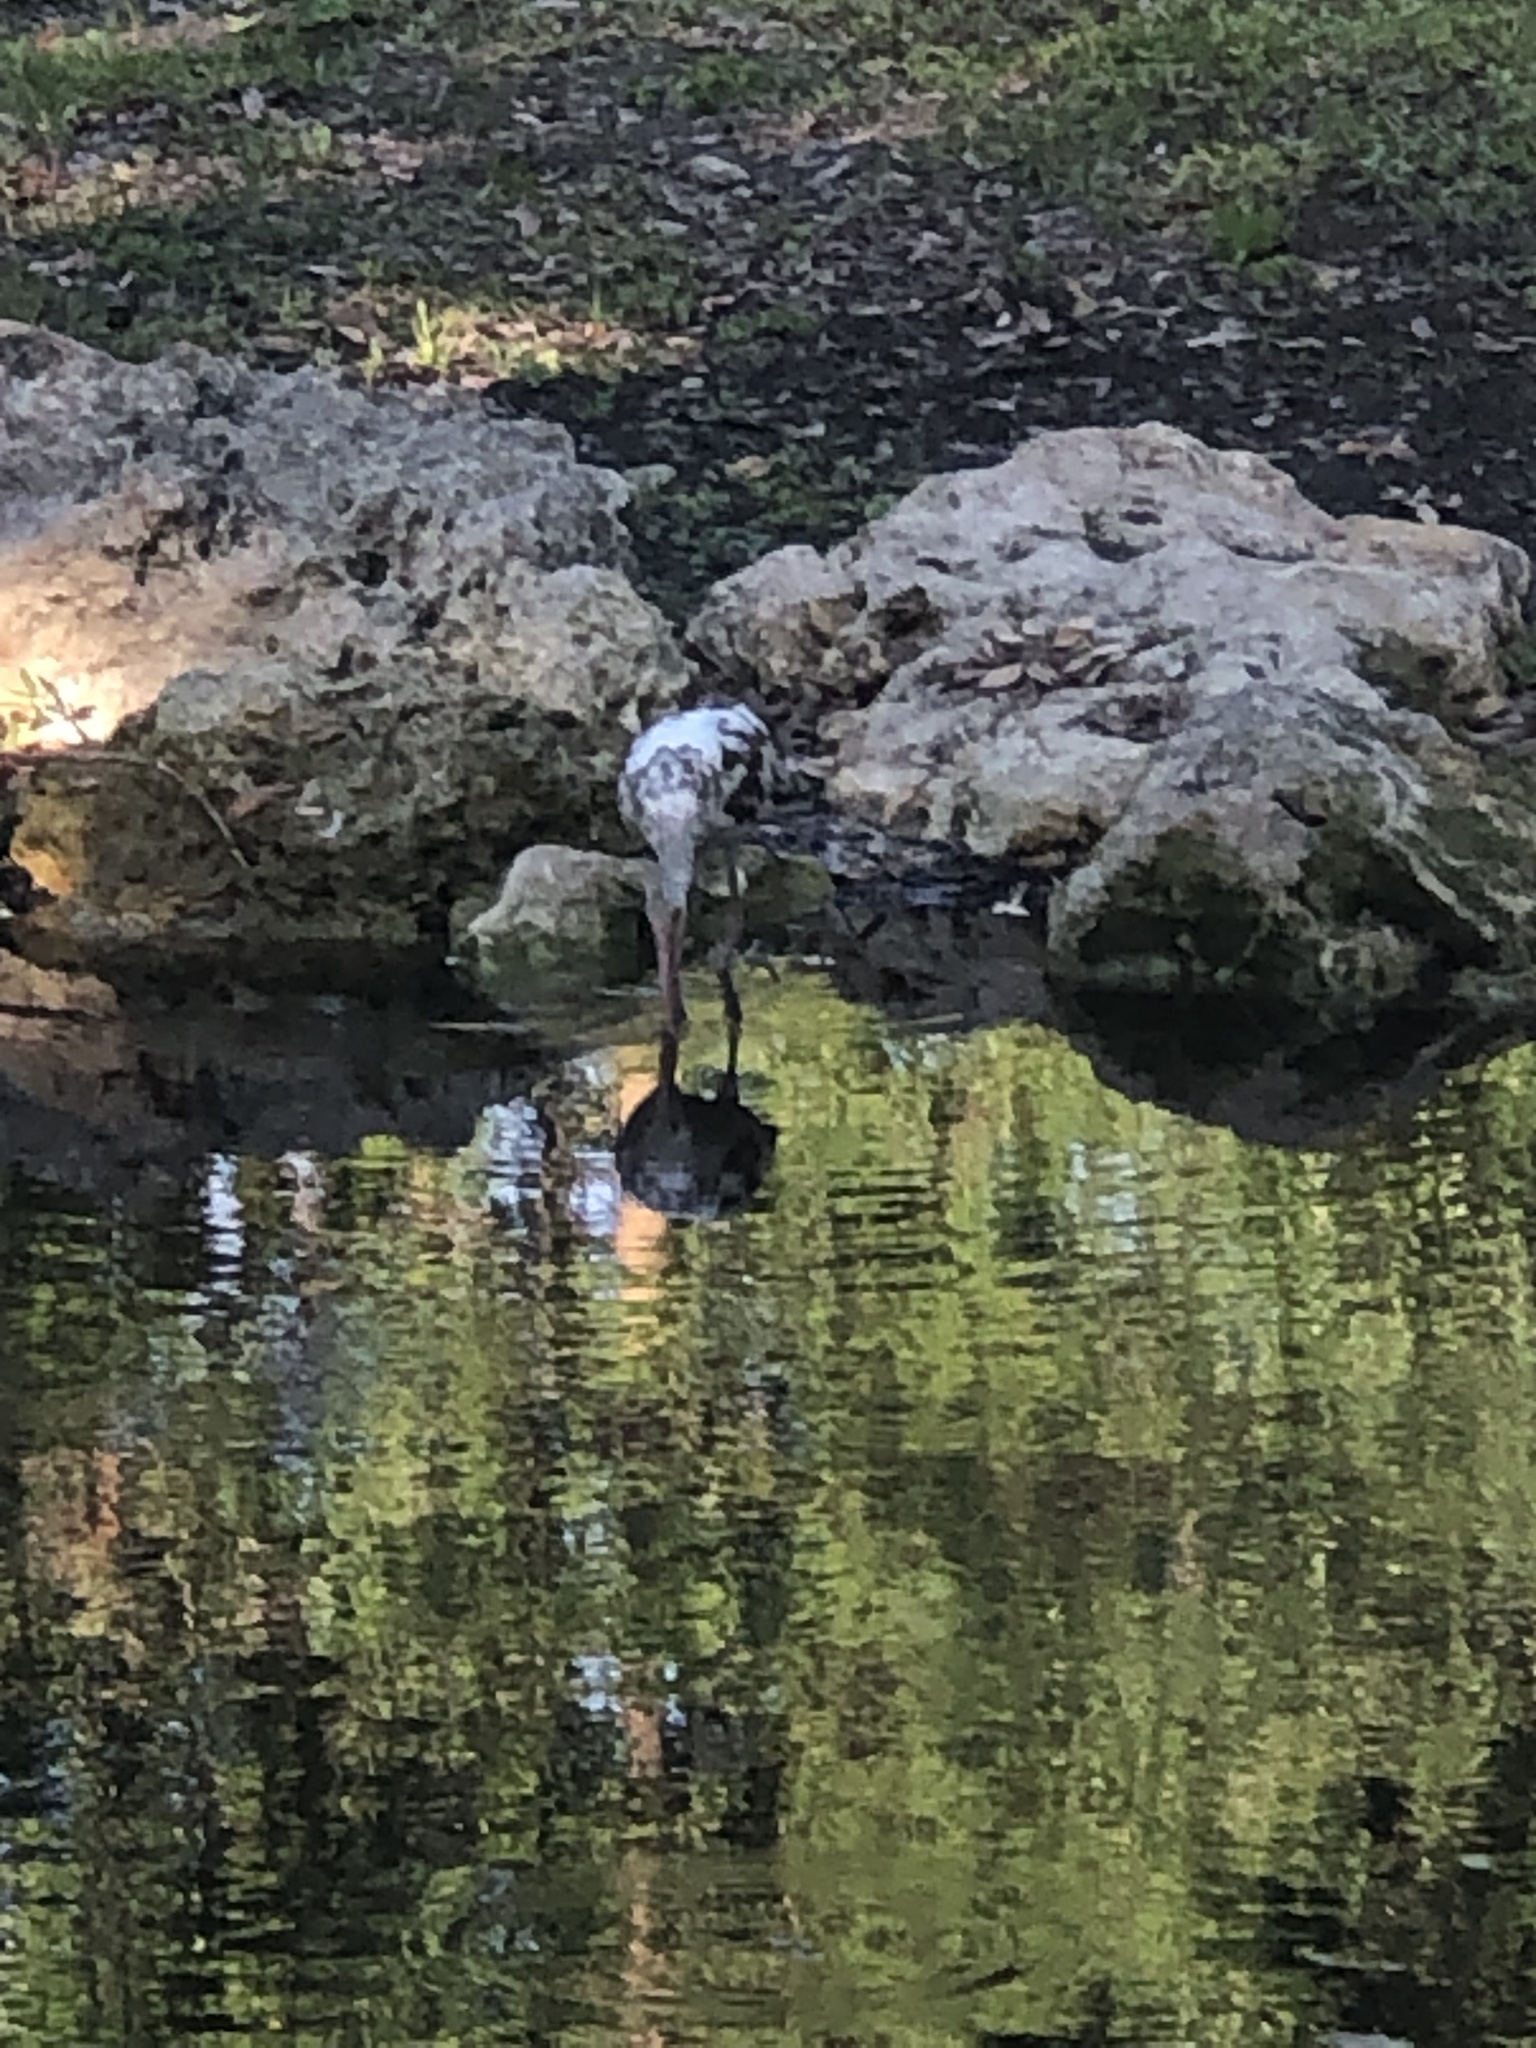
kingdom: Animalia
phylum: Chordata
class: Aves
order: Pelecaniformes
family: Threskiornithidae
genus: Eudocimus
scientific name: Eudocimus albus
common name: White ibis
